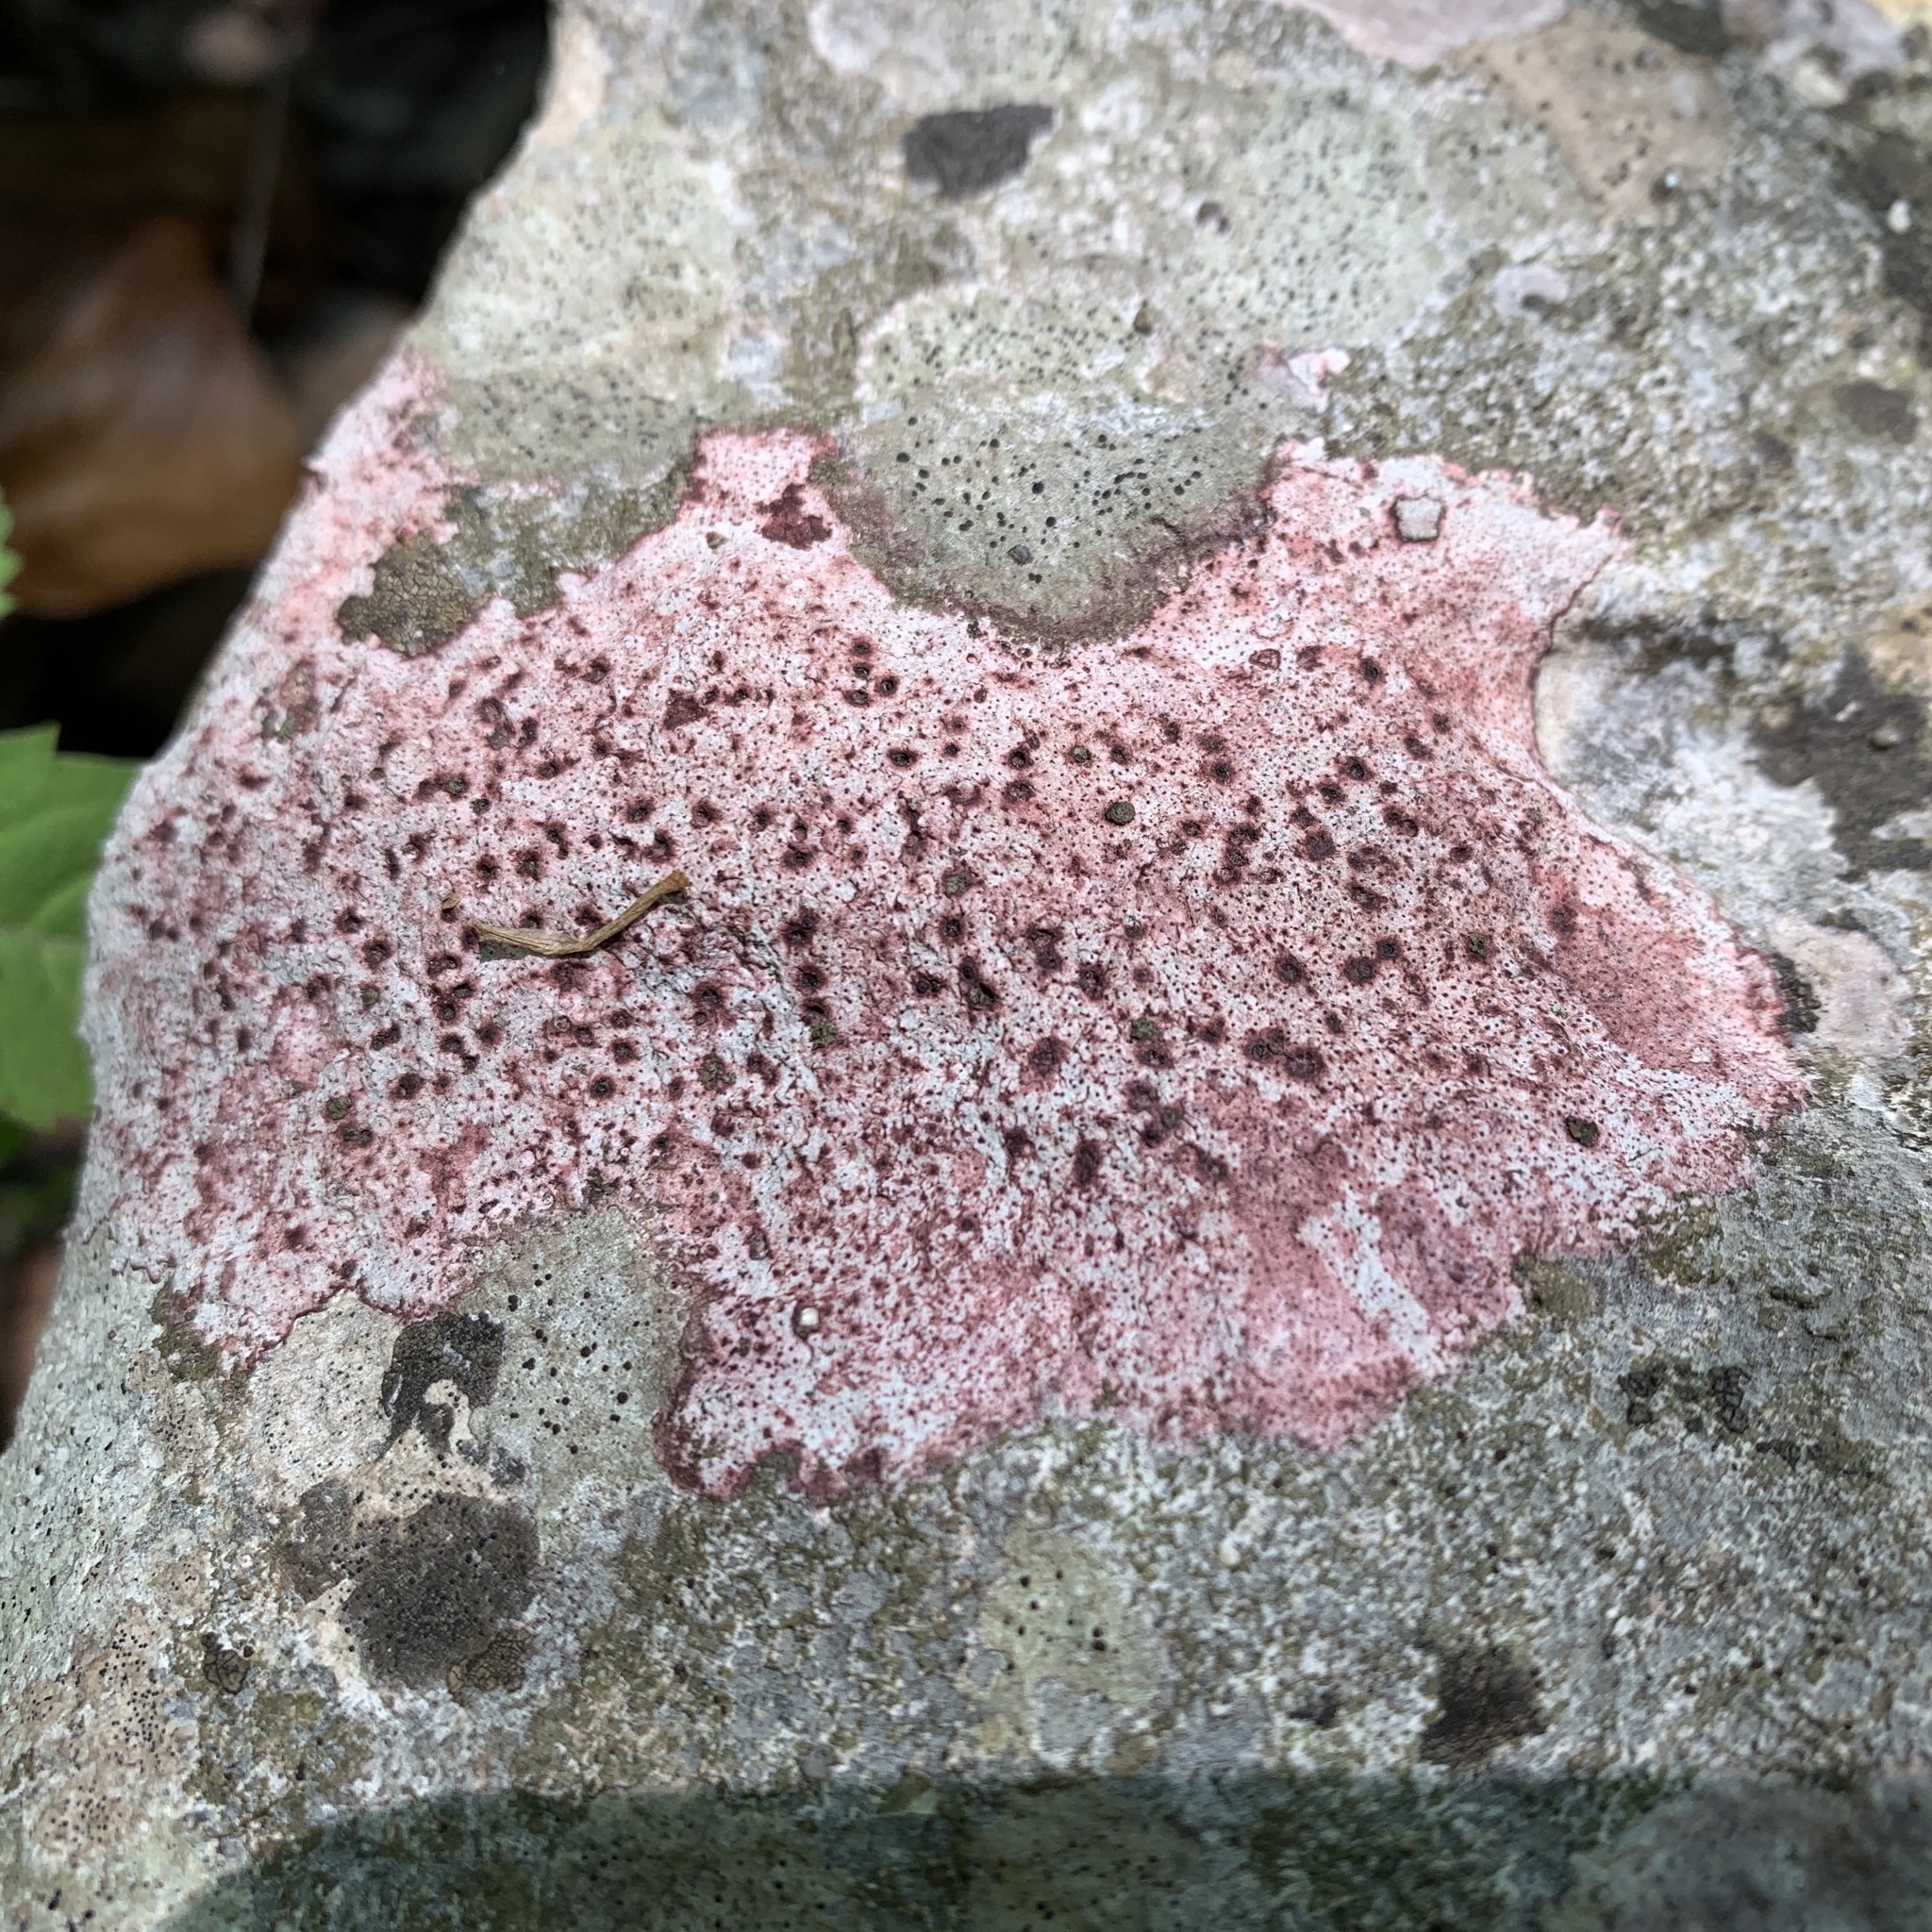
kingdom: Fungi
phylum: Ascomycota
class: Eurotiomycetes
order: Verrucariales
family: Verrucariaceae
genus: Bagliettoa
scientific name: Bagliettoa marmorea
